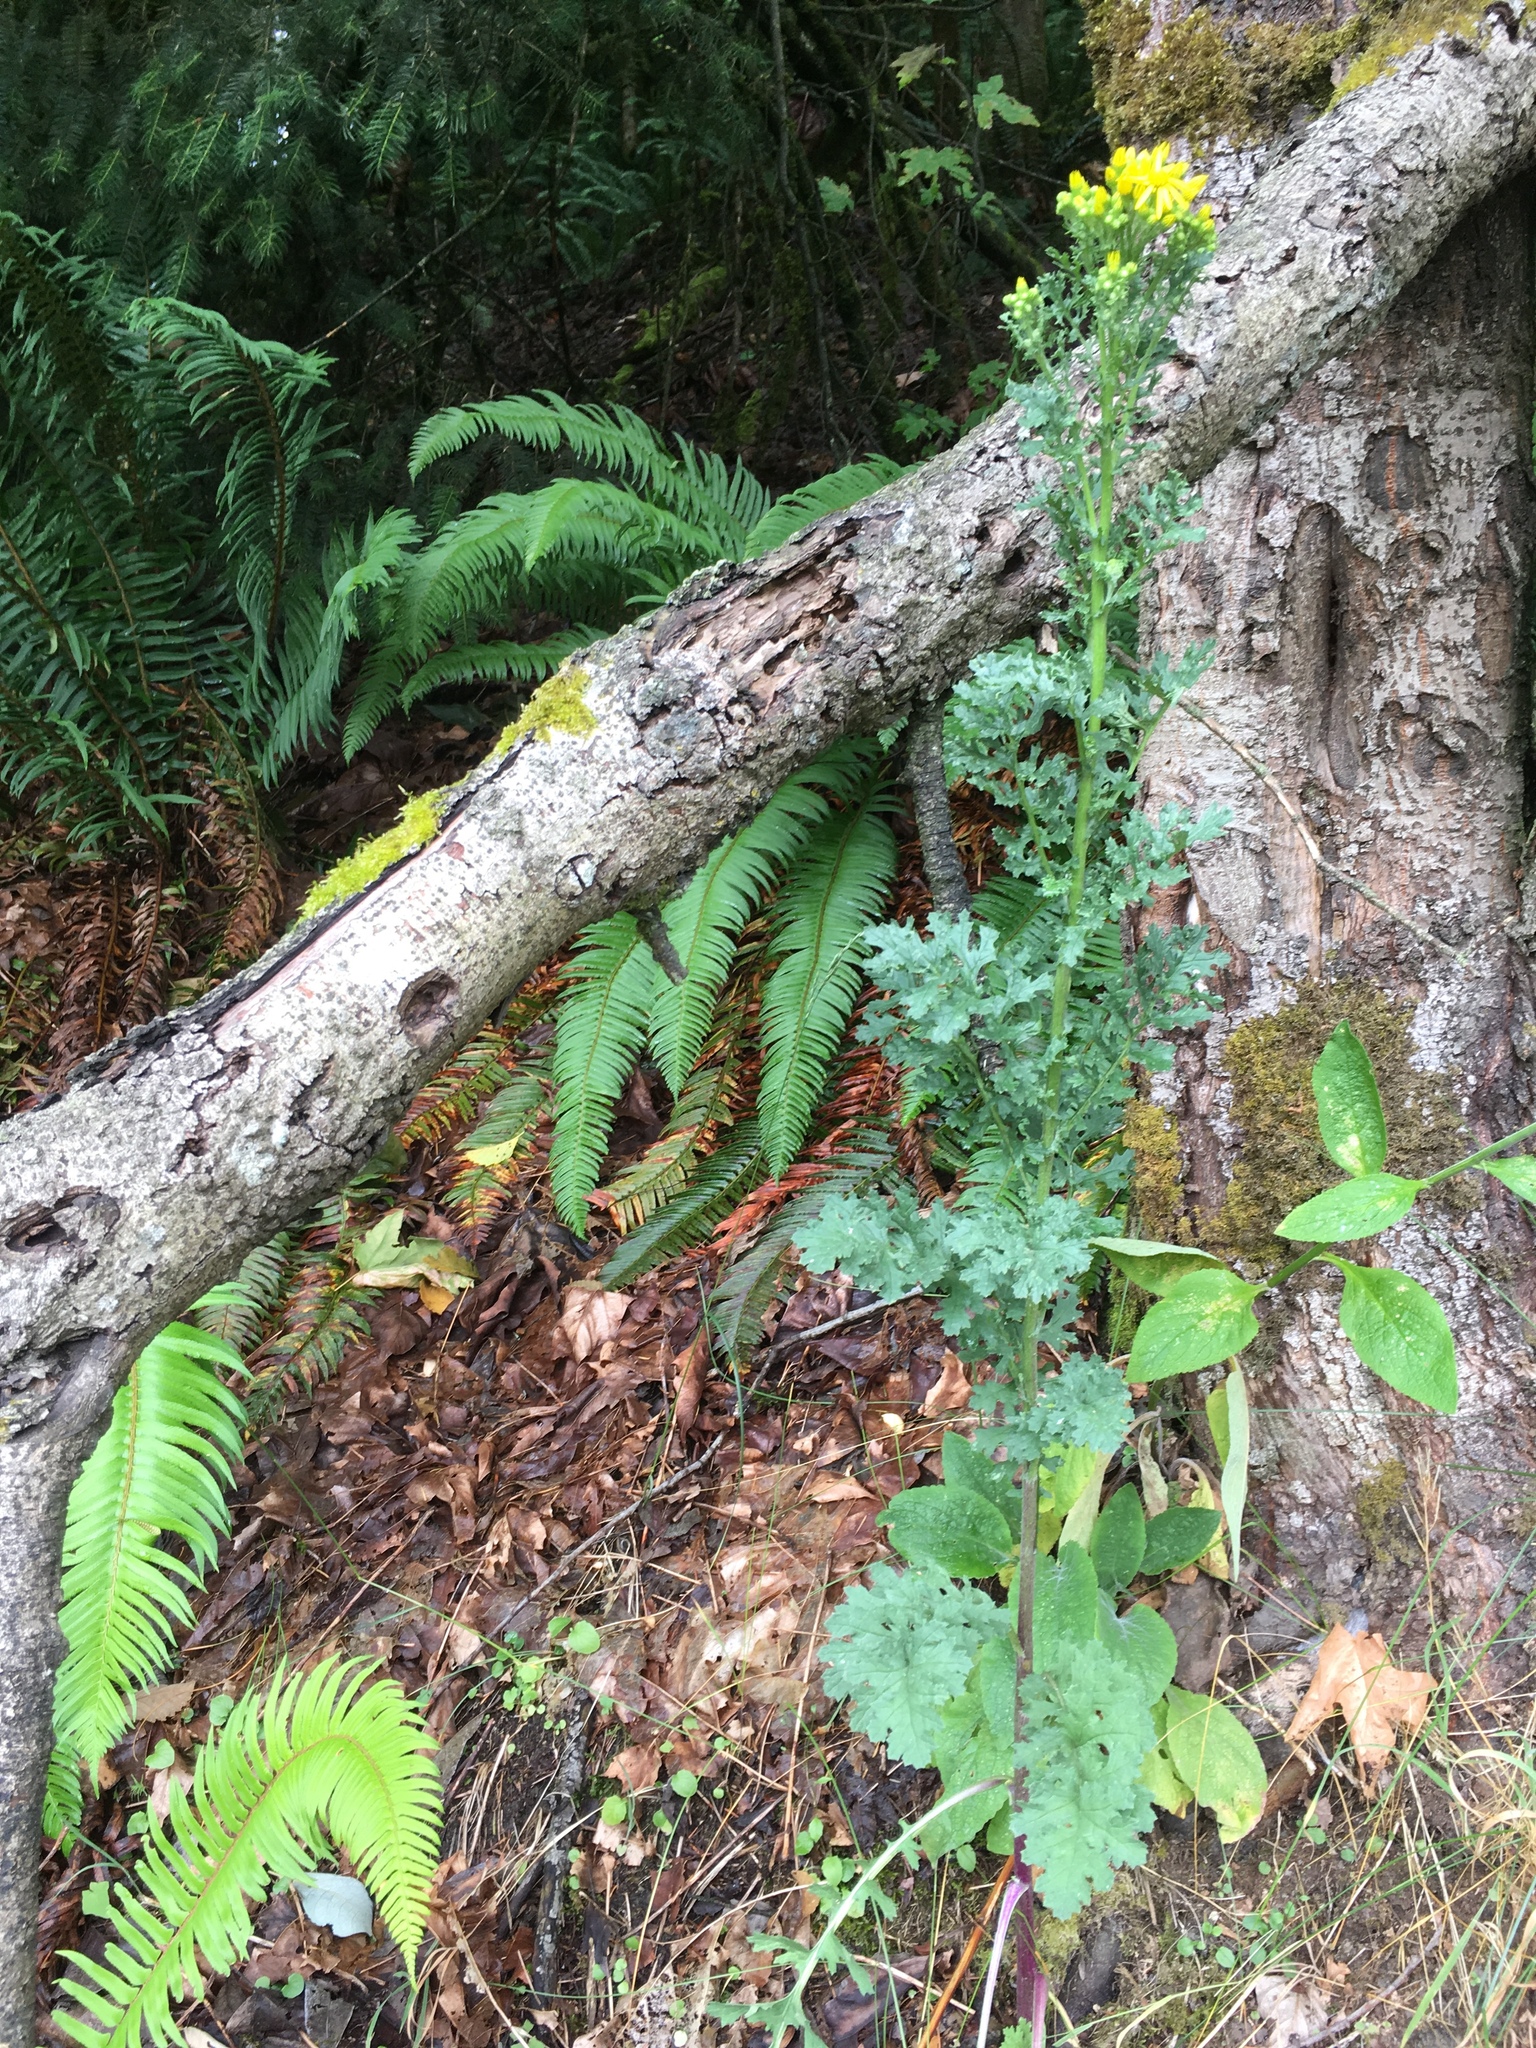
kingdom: Plantae
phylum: Tracheophyta
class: Magnoliopsida
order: Asterales
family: Asteraceae
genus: Jacobaea
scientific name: Jacobaea vulgaris
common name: Stinking willie
